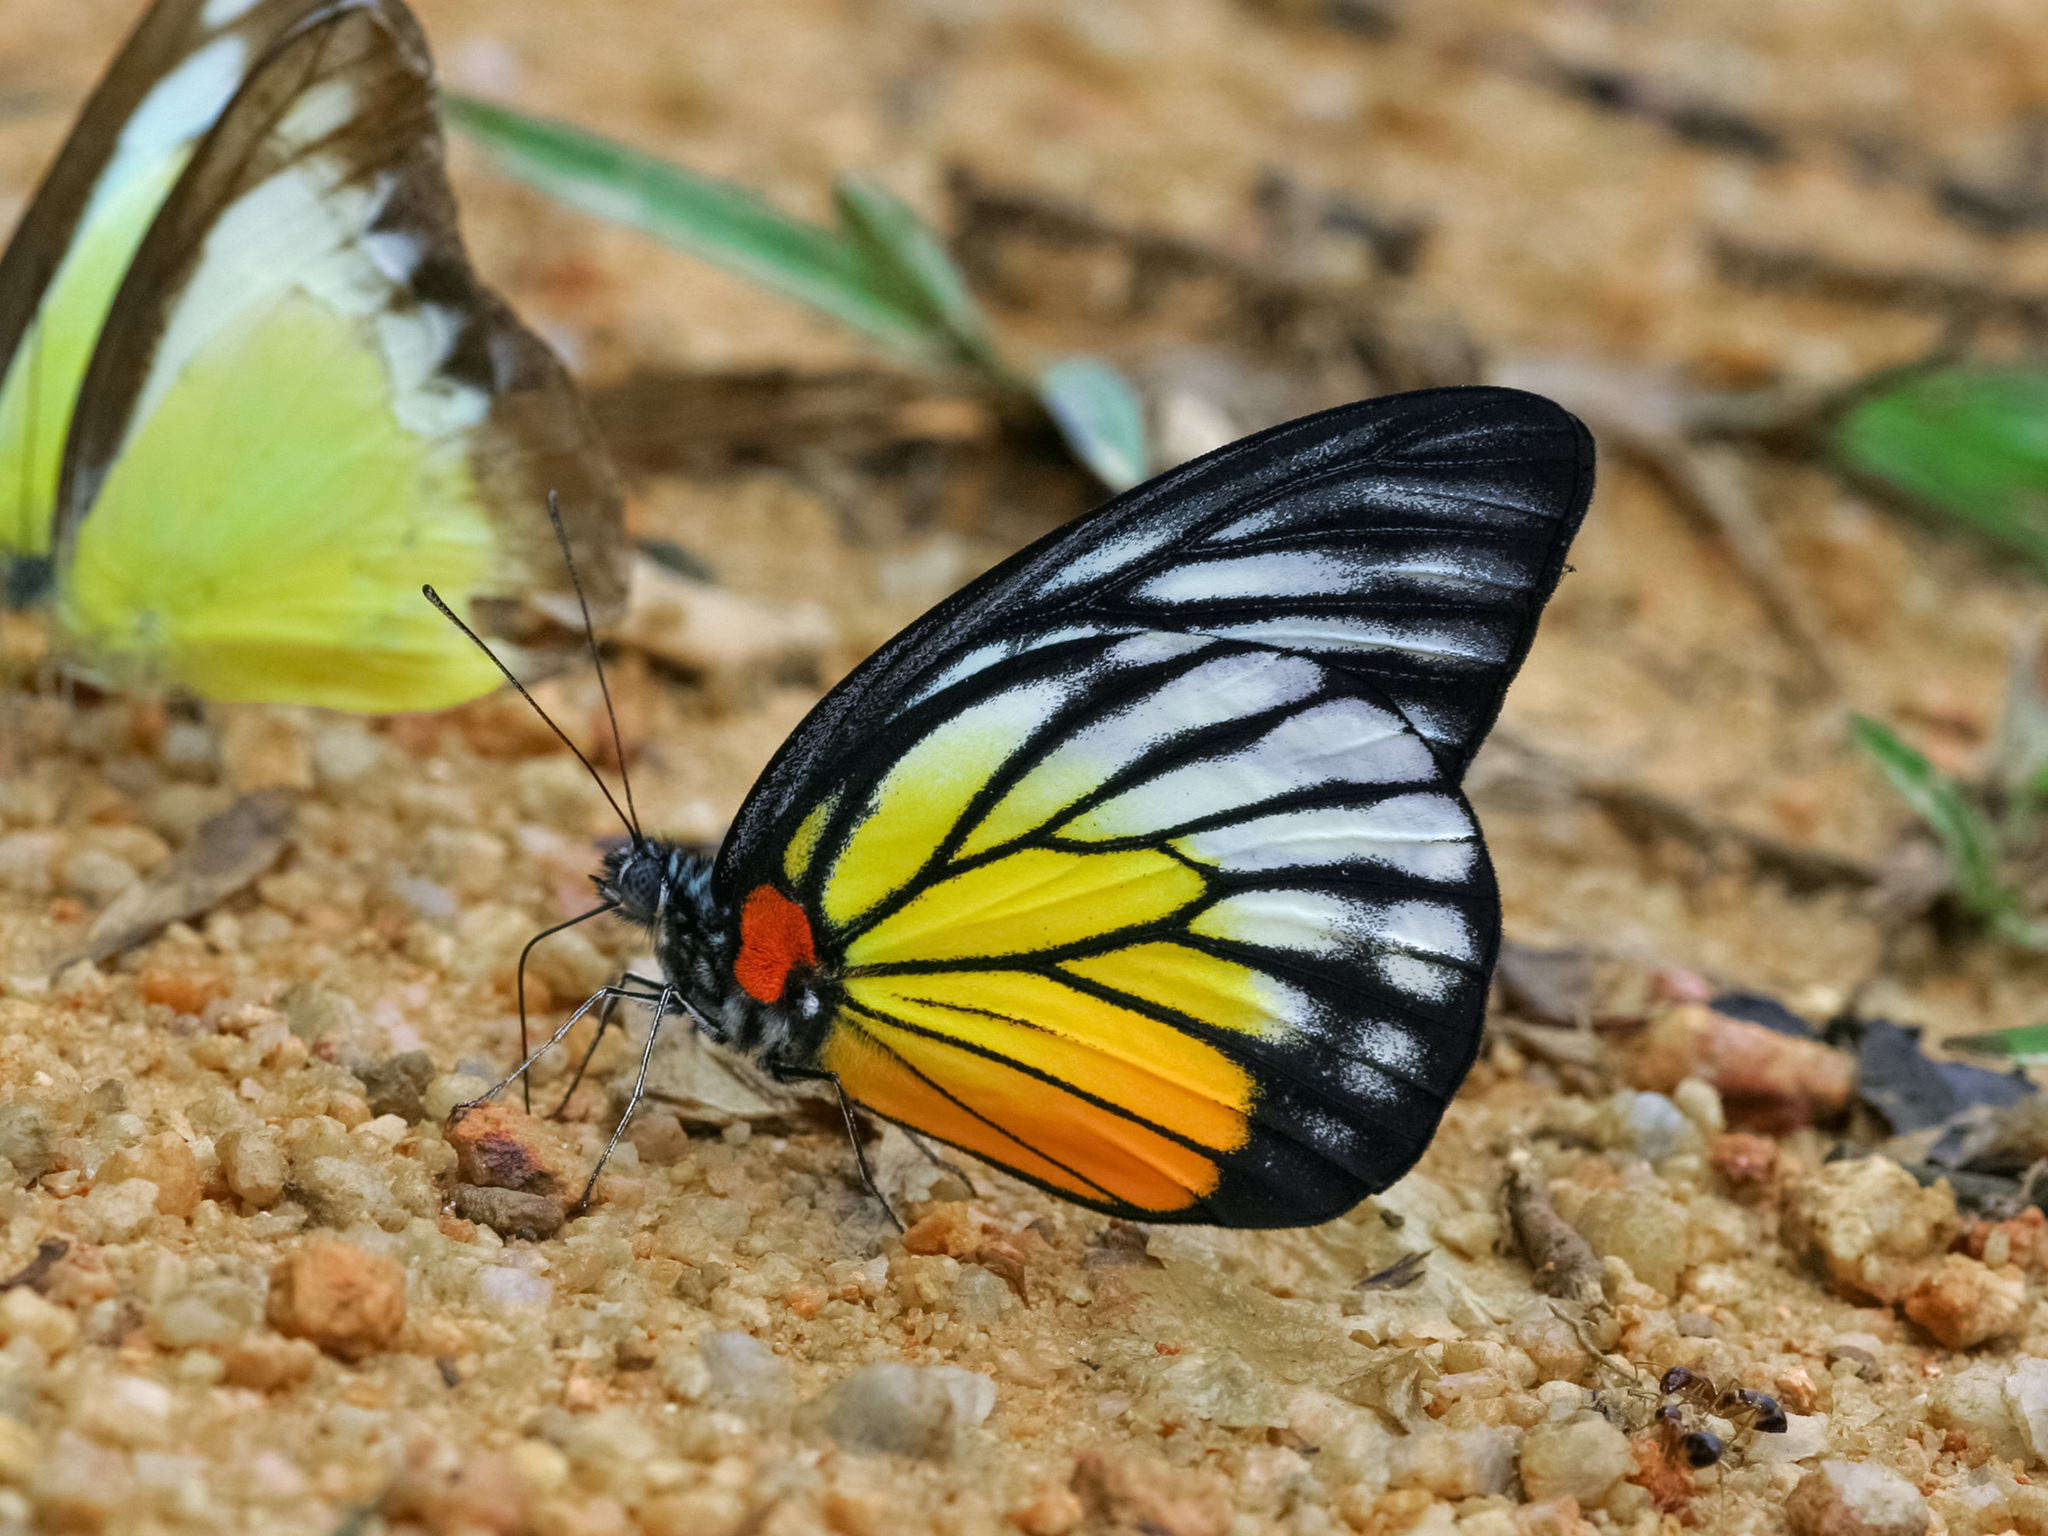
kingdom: Animalia
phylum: Arthropoda
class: Insecta
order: Lepidoptera
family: Pieridae
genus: Prioneris
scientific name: Prioneris philonome
